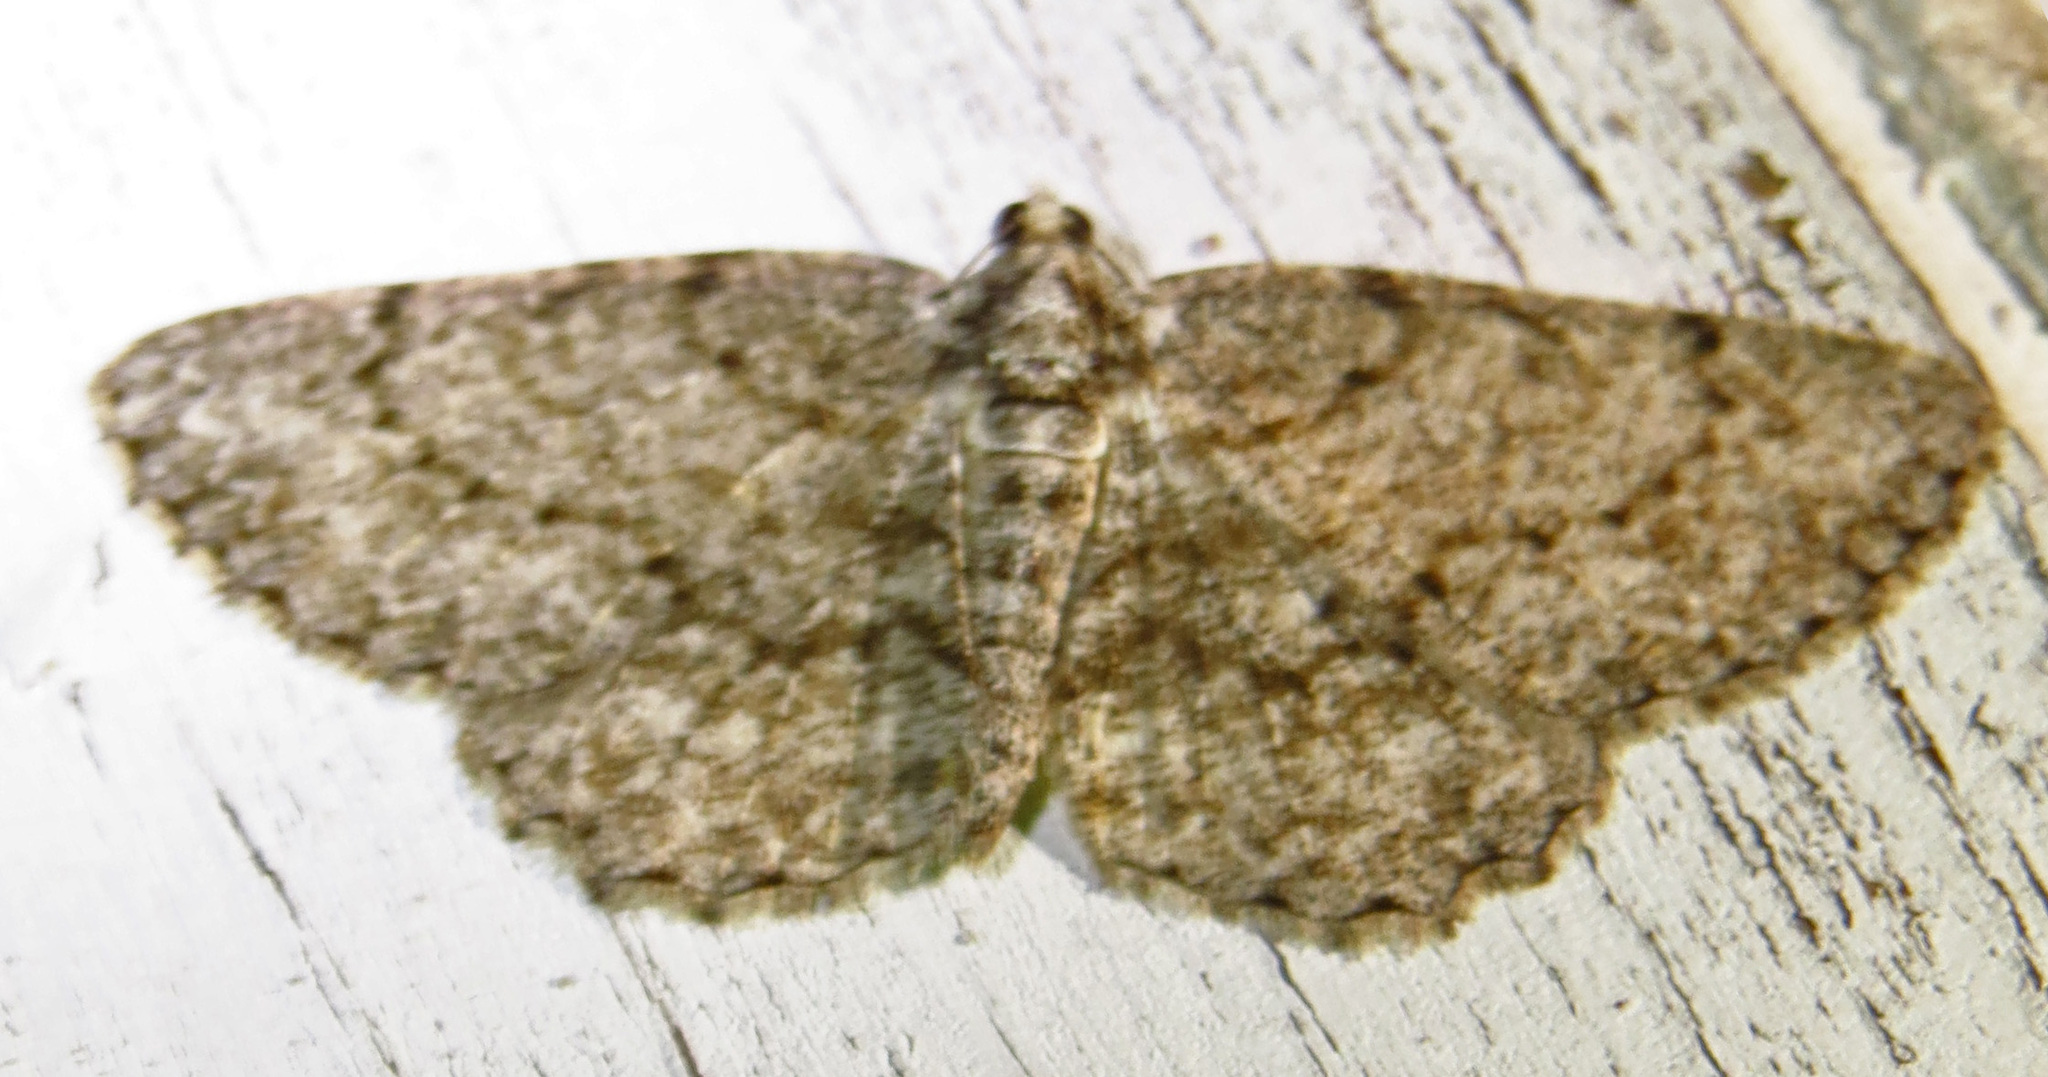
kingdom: Animalia
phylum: Arthropoda
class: Insecta
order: Lepidoptera
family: Geometridae
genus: Protoboarmia
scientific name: Protoboarmia porcelaria
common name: Porcelain gray
